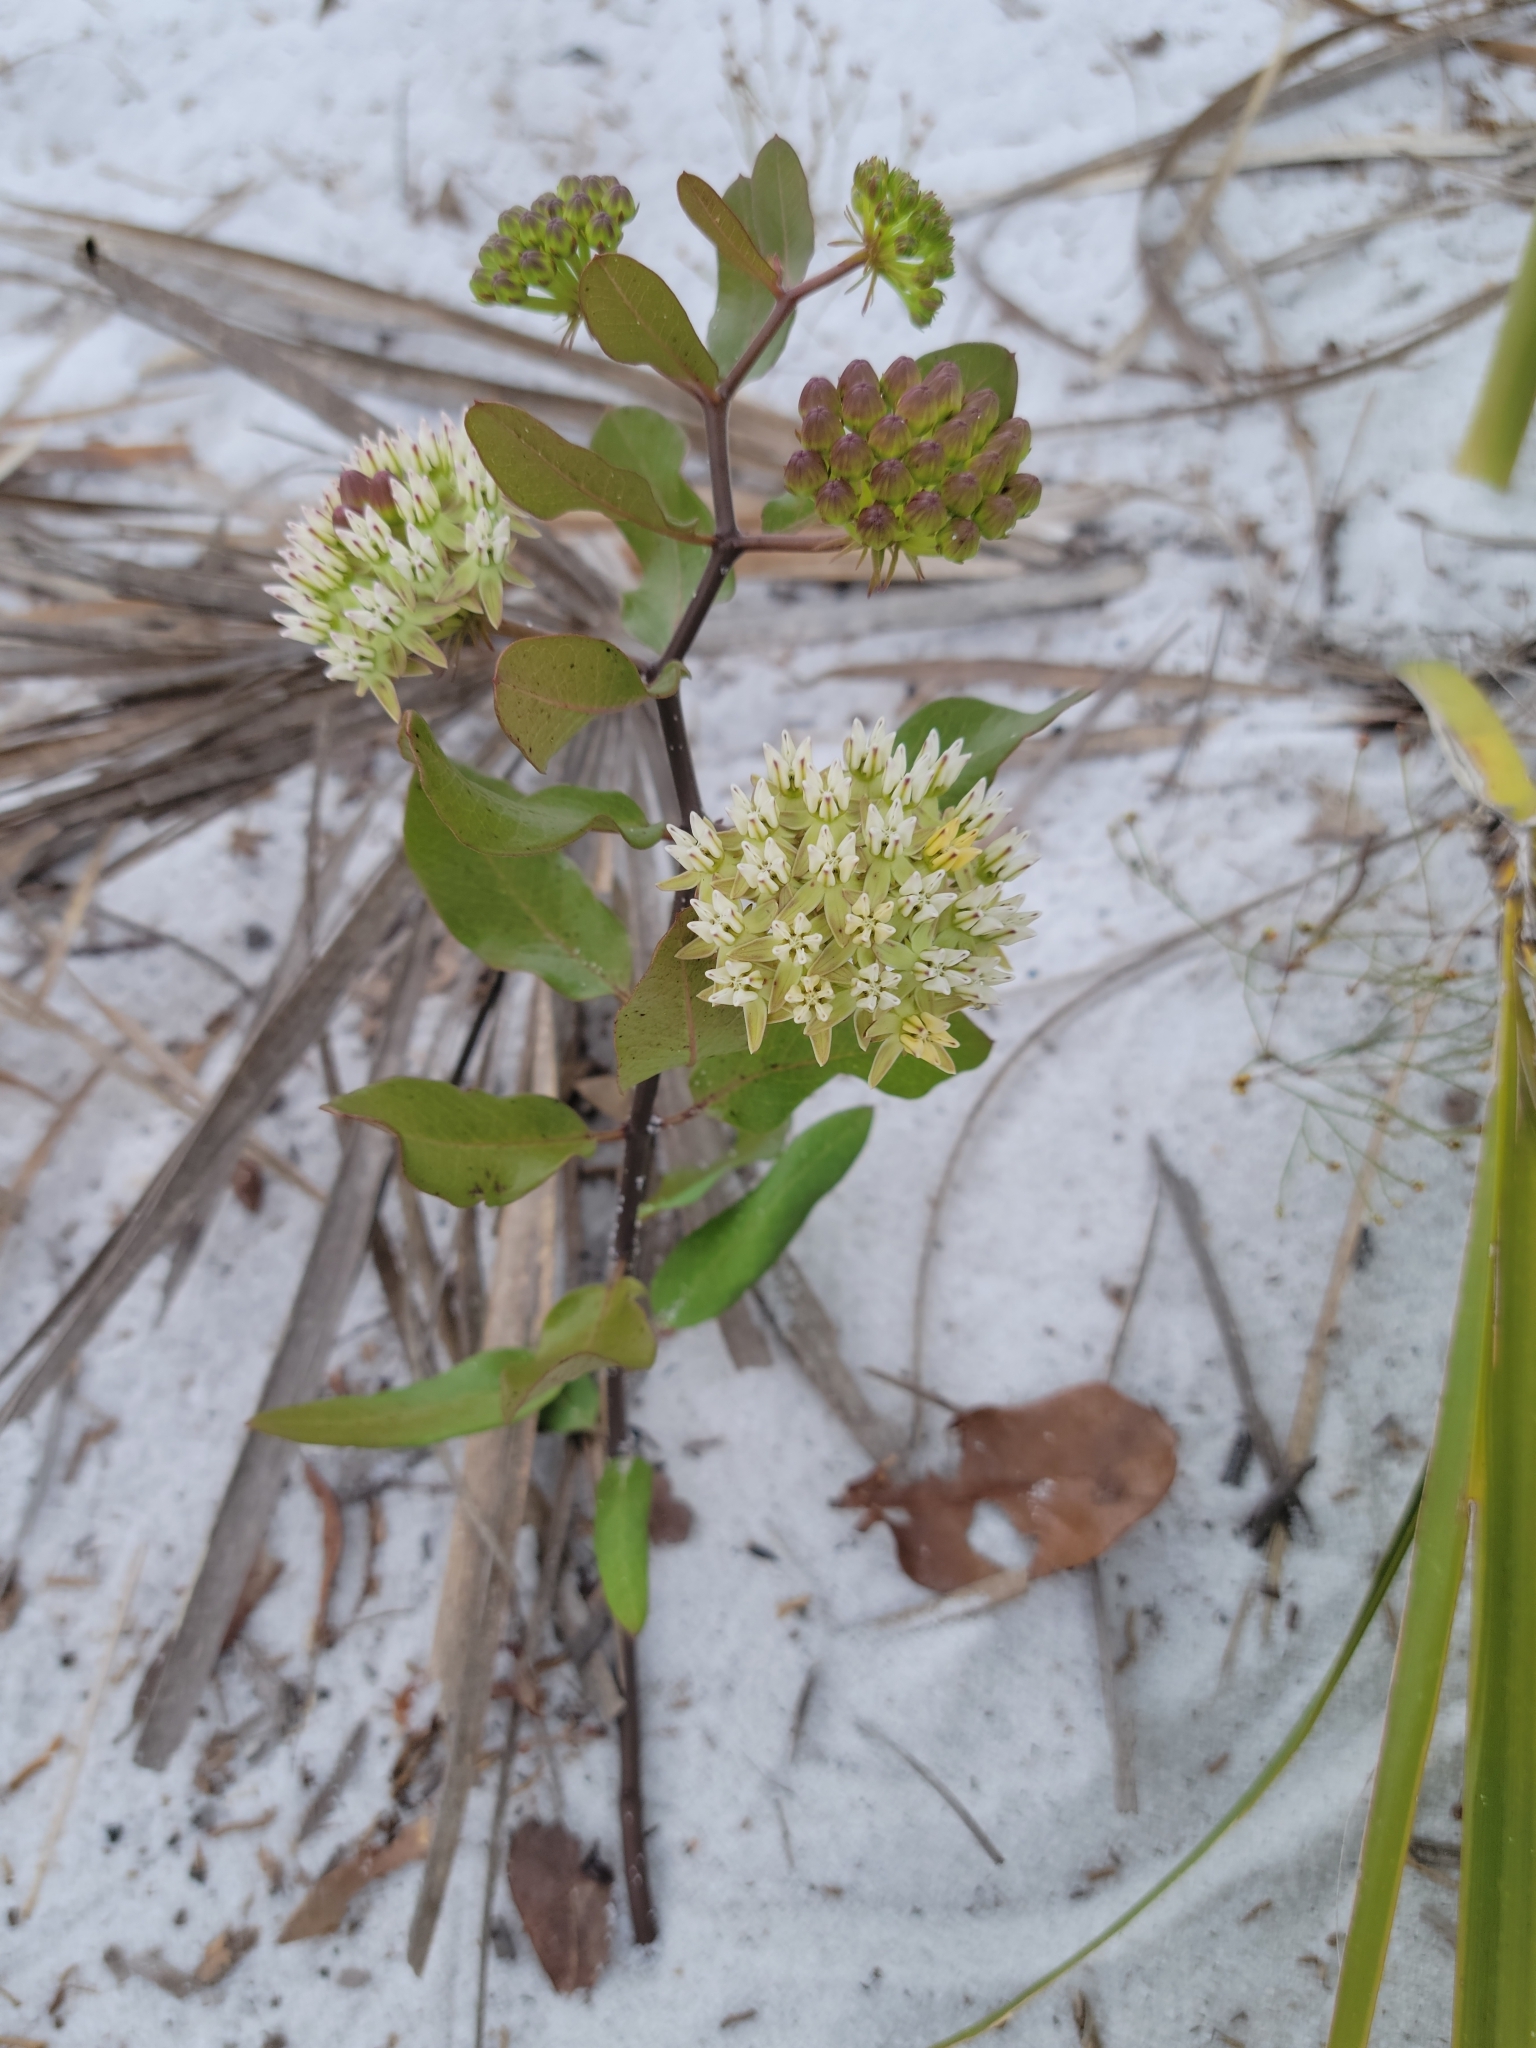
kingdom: Plantae
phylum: Tracheophyta
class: Magnoliopsida
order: Gentianales
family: Apocynaceae
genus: Asclepias
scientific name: Asclepias curtissii
